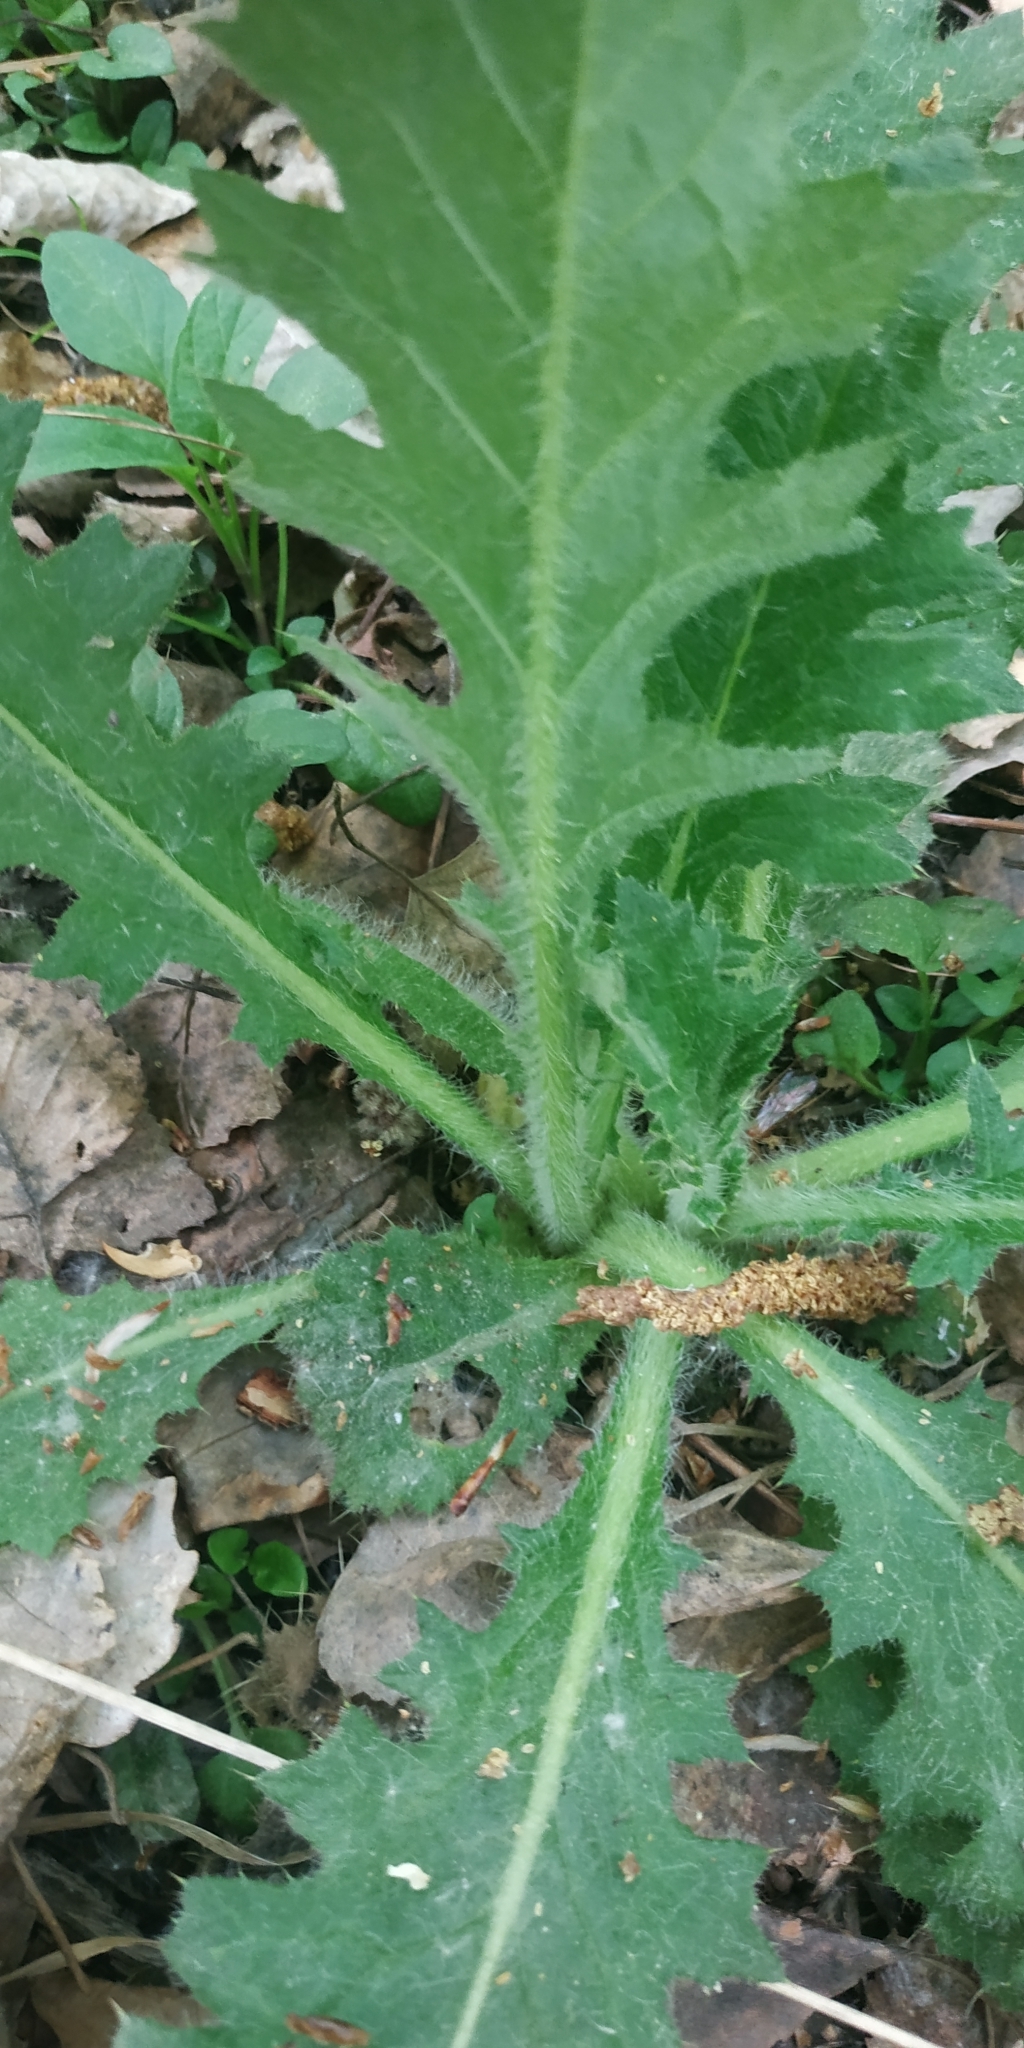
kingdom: Plantae
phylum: Tracheophyta
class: Magnoliopsida
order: Asterales
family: Asteraceae
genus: Carduus
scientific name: Carduus crispus
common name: Welted thistle
